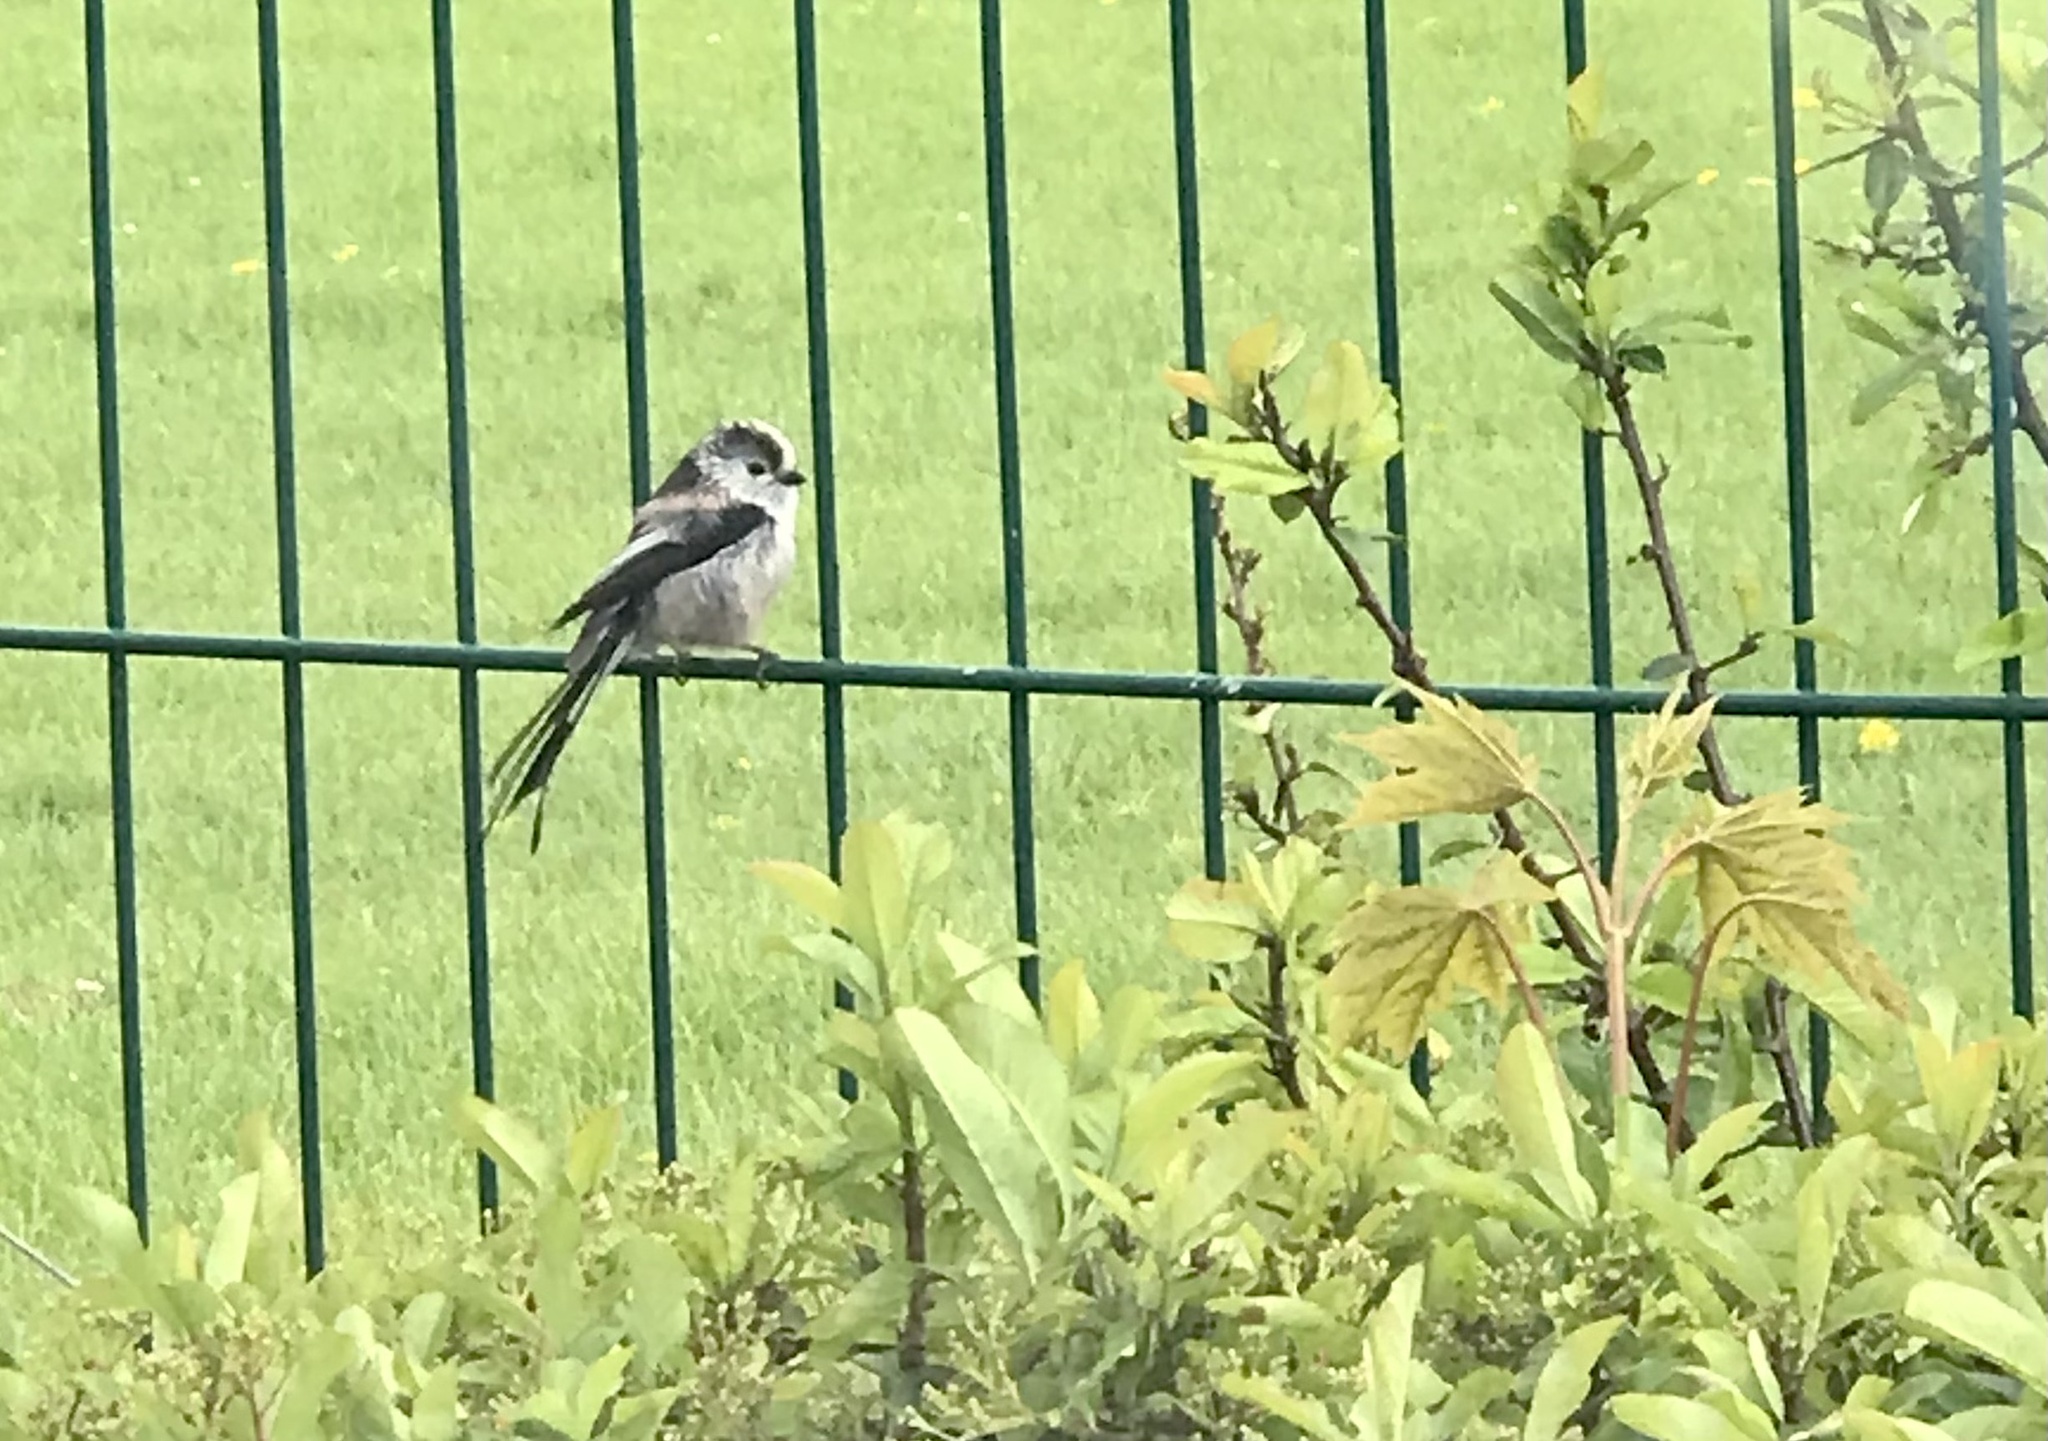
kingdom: Animalia
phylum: Chordata
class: Aves
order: Passeriformes
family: Aegithalidae
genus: Aegithalos
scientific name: Aegithalos caudatus
